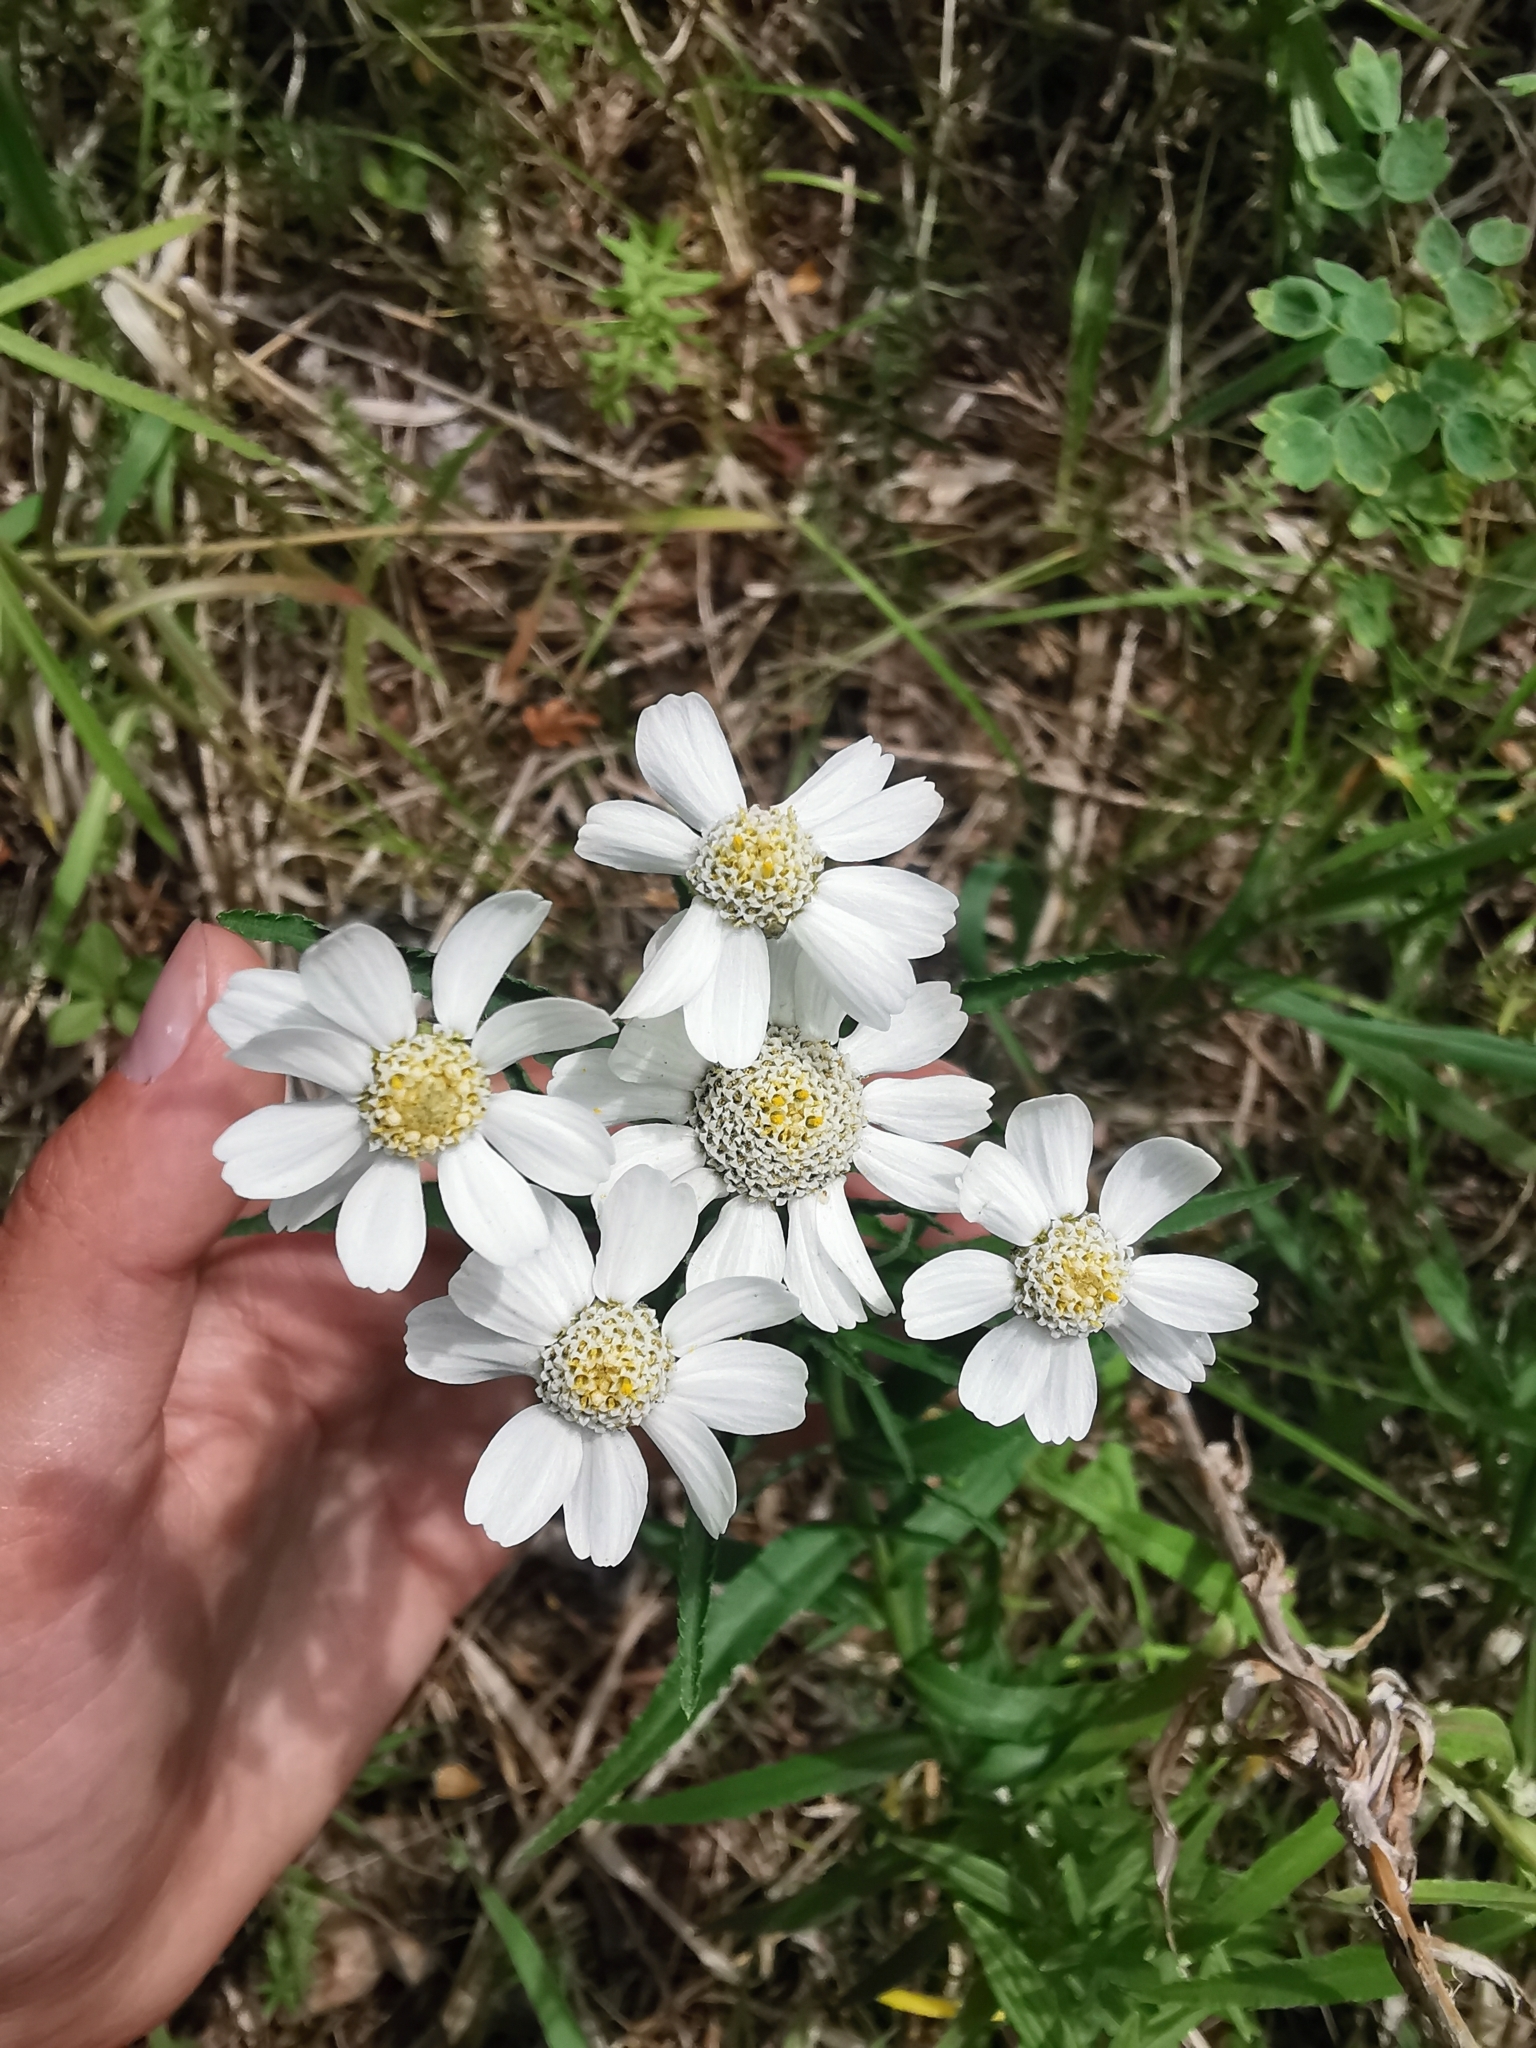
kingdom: Plantae
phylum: Tracheophyta
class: Magnoliopsida
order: Asterales
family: Asteraceae
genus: Achillea
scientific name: Achillea ptarmica
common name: Sneezeweed
